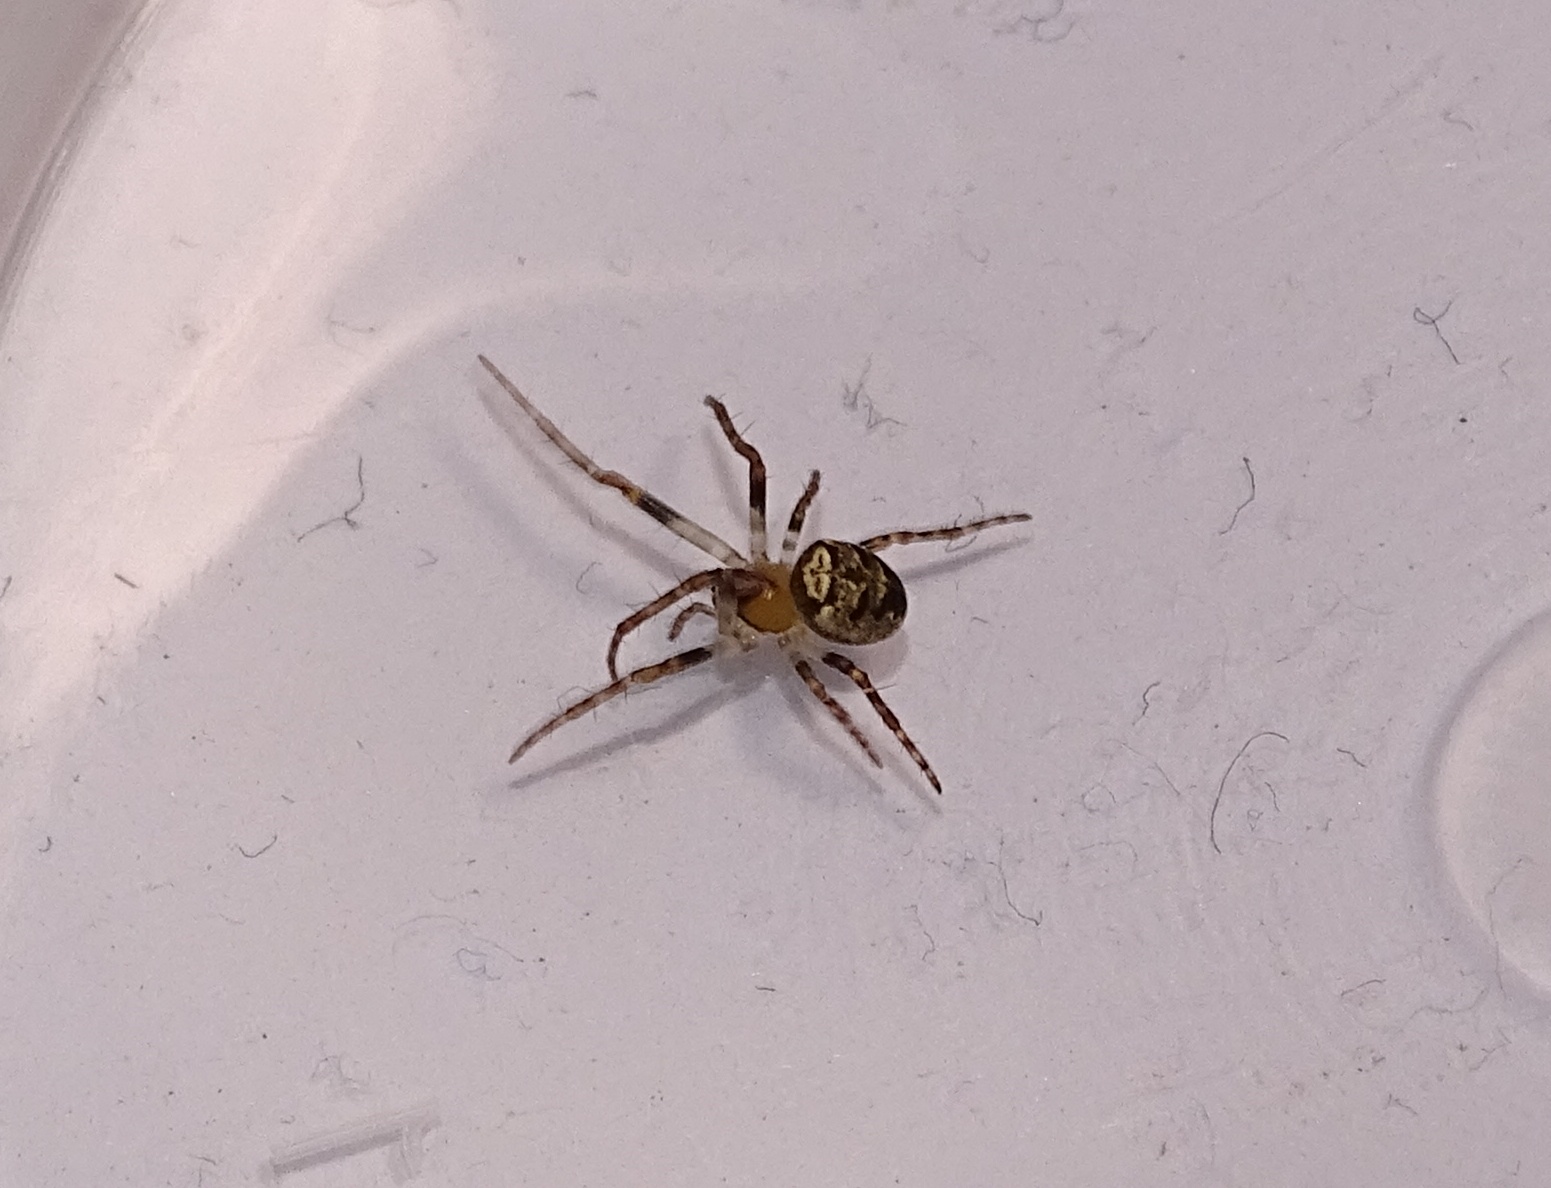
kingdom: Animalia
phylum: Arthropoda
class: Arachnida
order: Araneae
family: Araneidae
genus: Zilla
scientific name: Zilla diodia
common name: Zilla diodia
